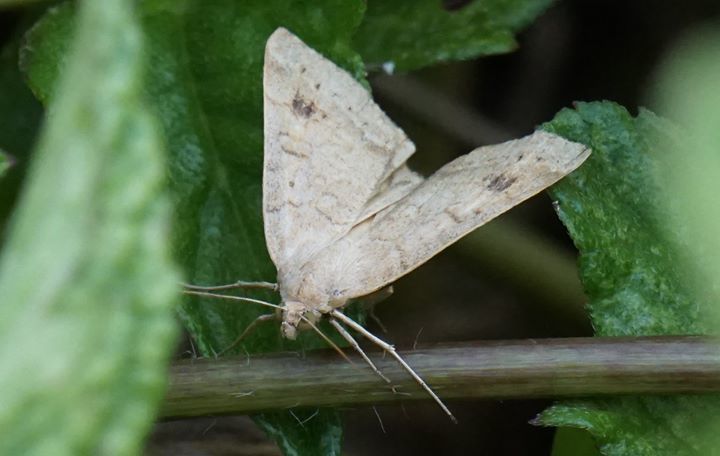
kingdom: Animalia
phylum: Arthropoda
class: Insecta
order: Lepidoptera
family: Erebidae
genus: Caenurgia
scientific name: Caenurgia chloropha
